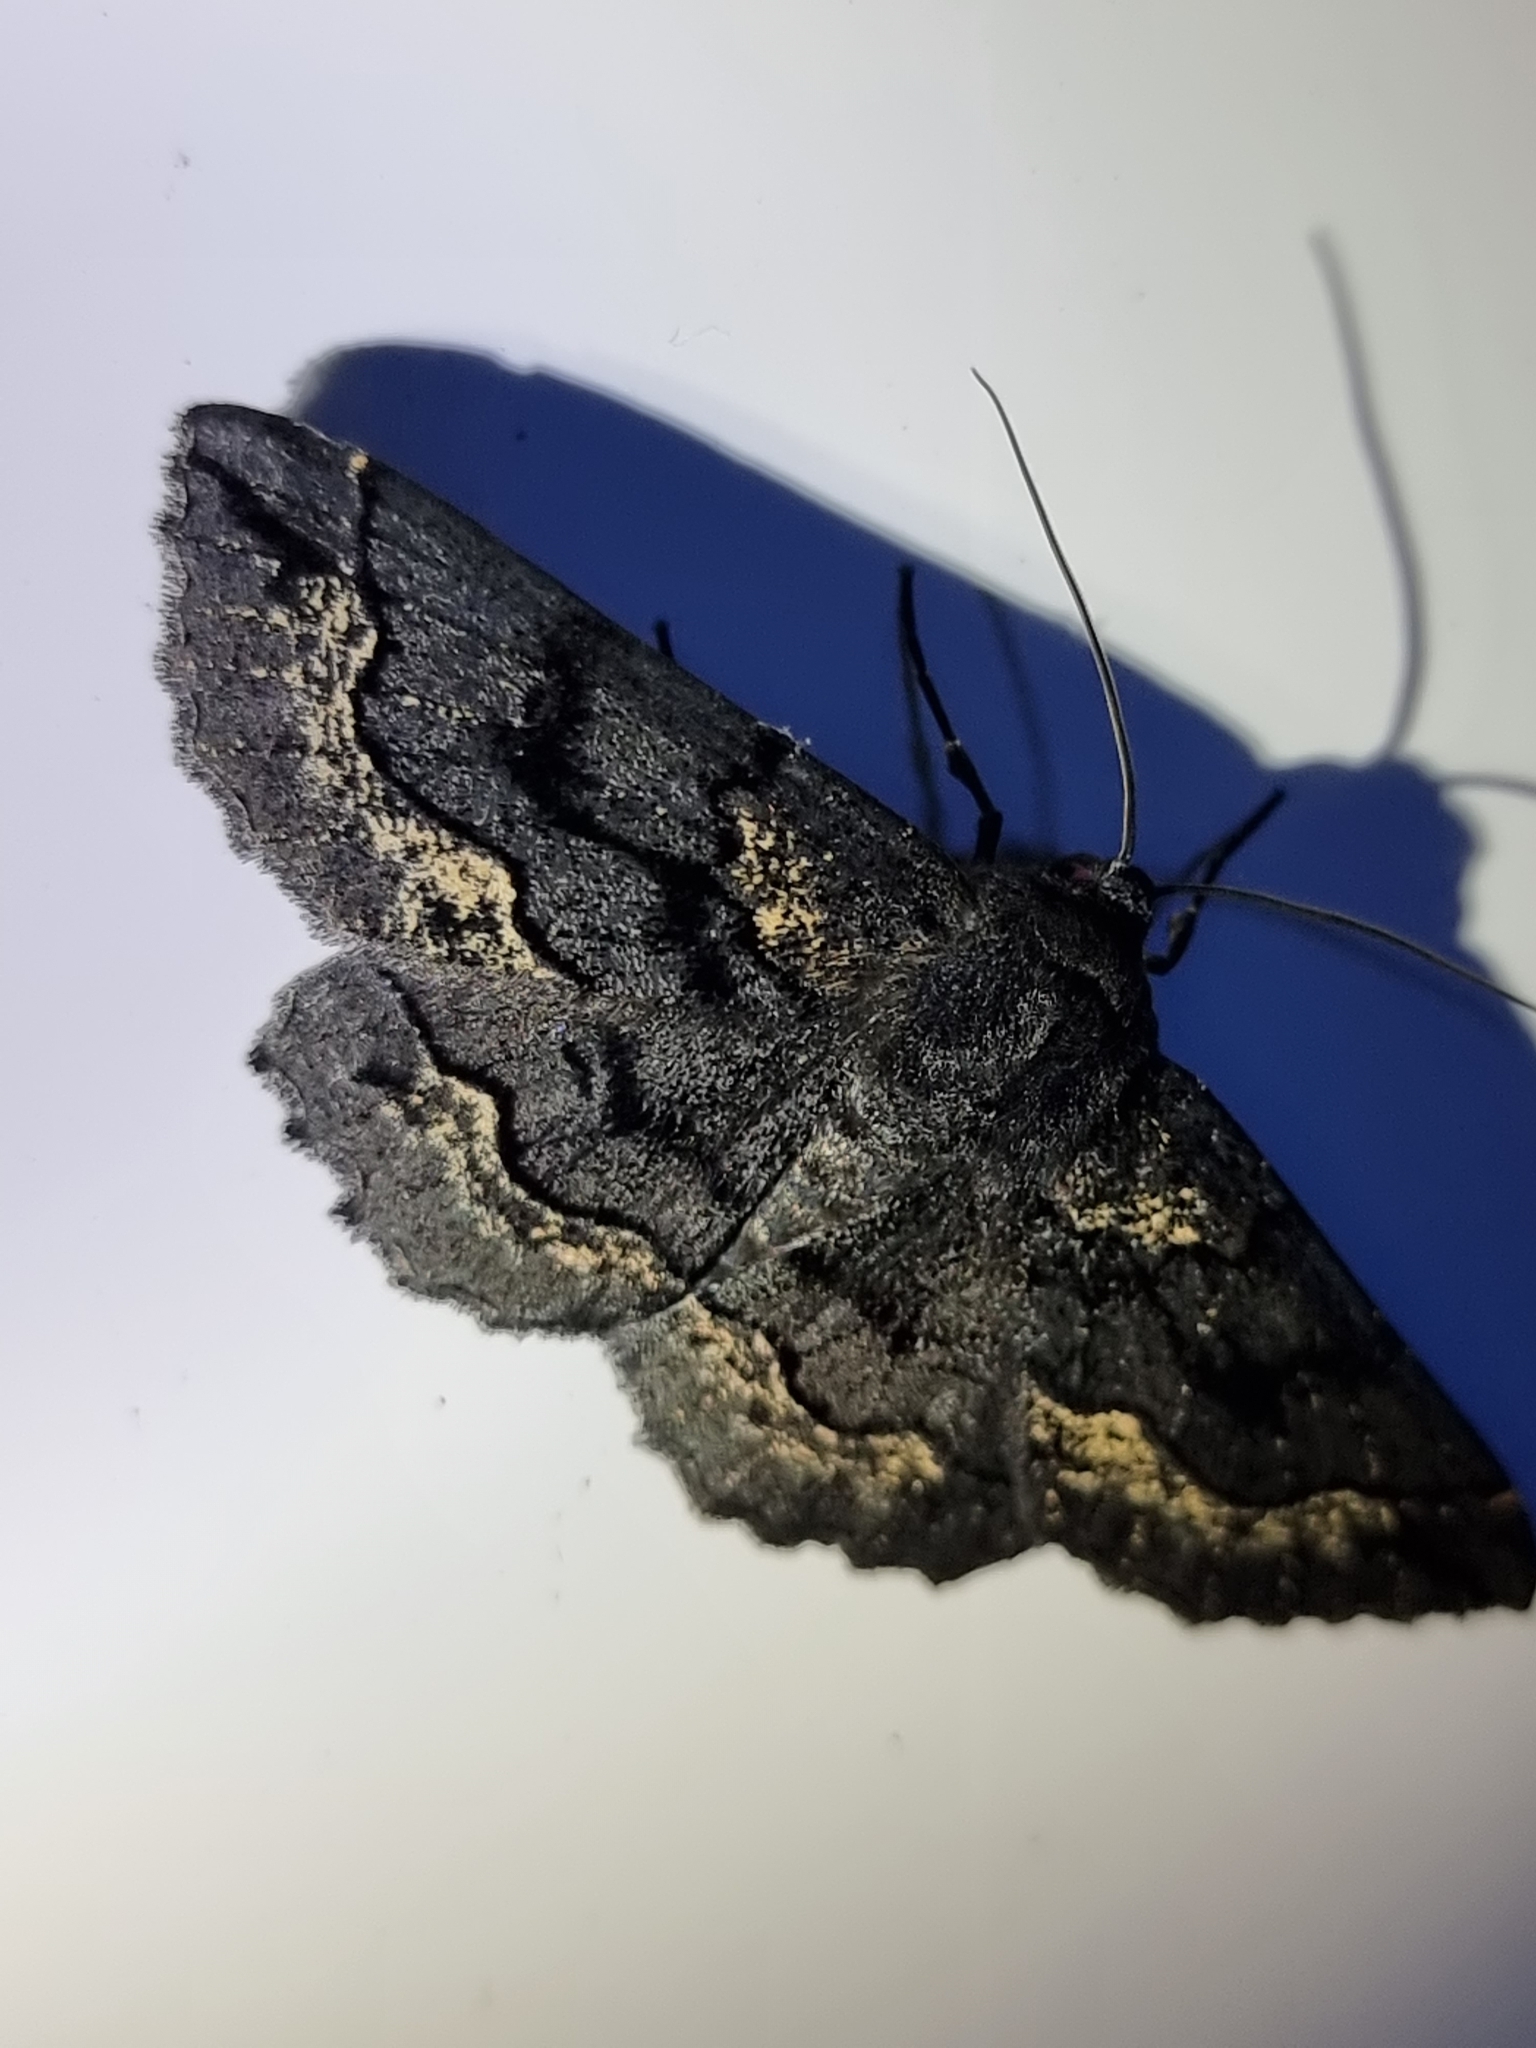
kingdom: Animalia
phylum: Arthropoda
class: Insecta
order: Lepidoptera
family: Geometridae
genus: Melanodes
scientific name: Melanodes anthracitaria
